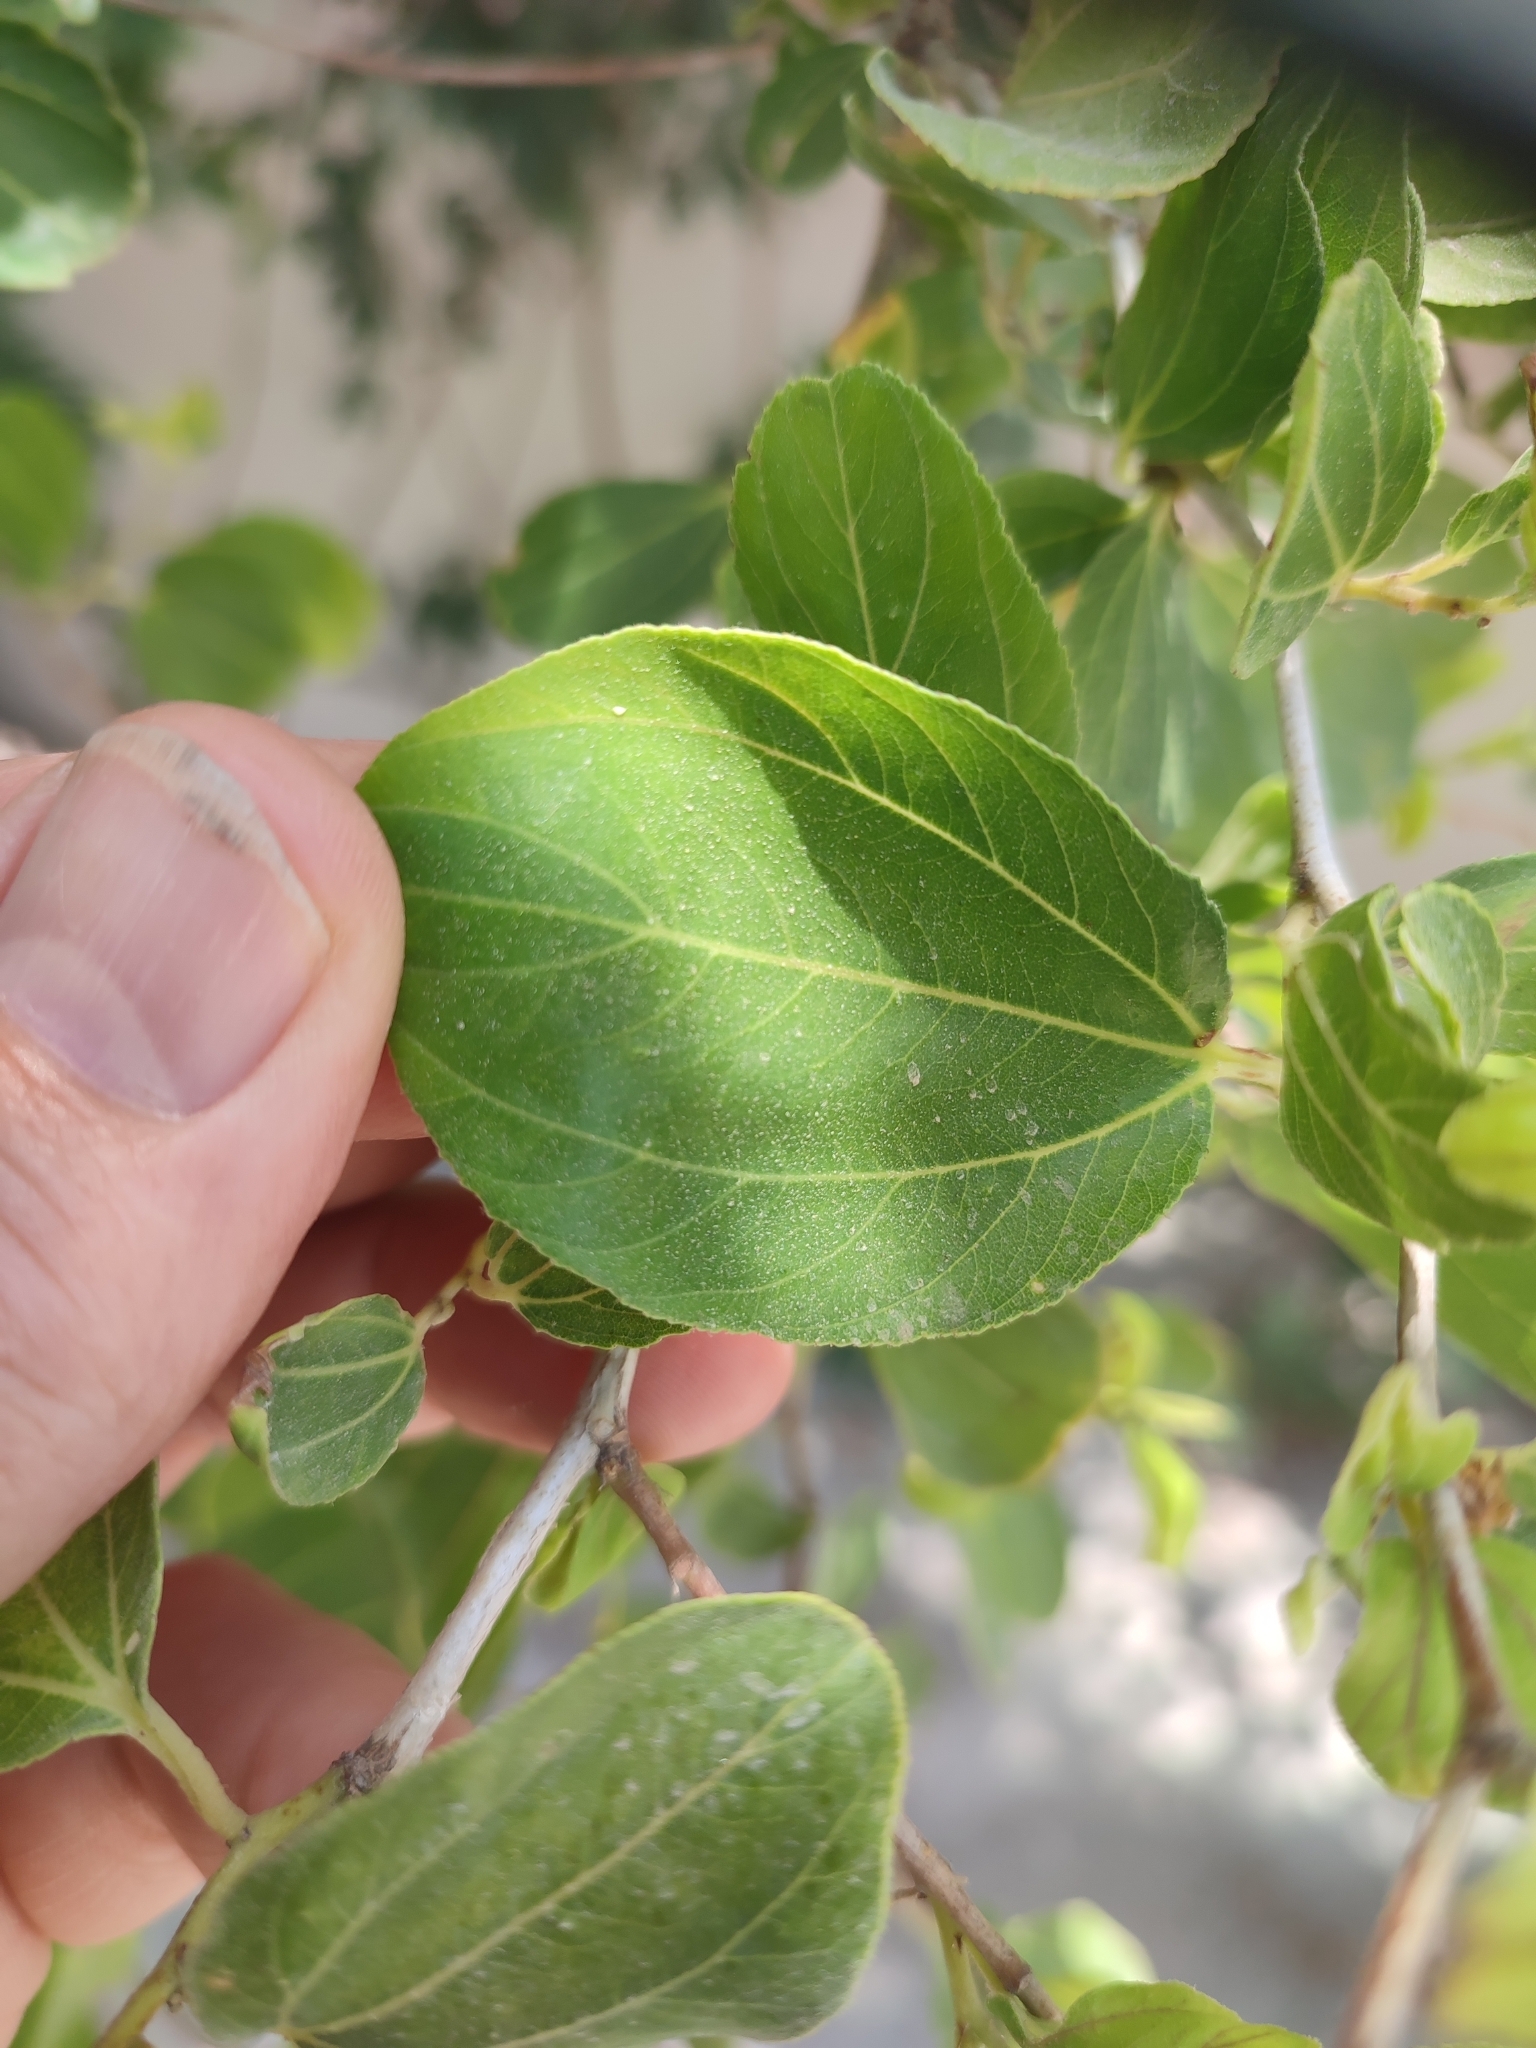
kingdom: Plantae
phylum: Tracheophyta
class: Magnoliopsida
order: Rosales
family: Rhamnaceae
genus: Ziziphus
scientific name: Ziziphus spina-christi
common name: Syrian christ-thorn
